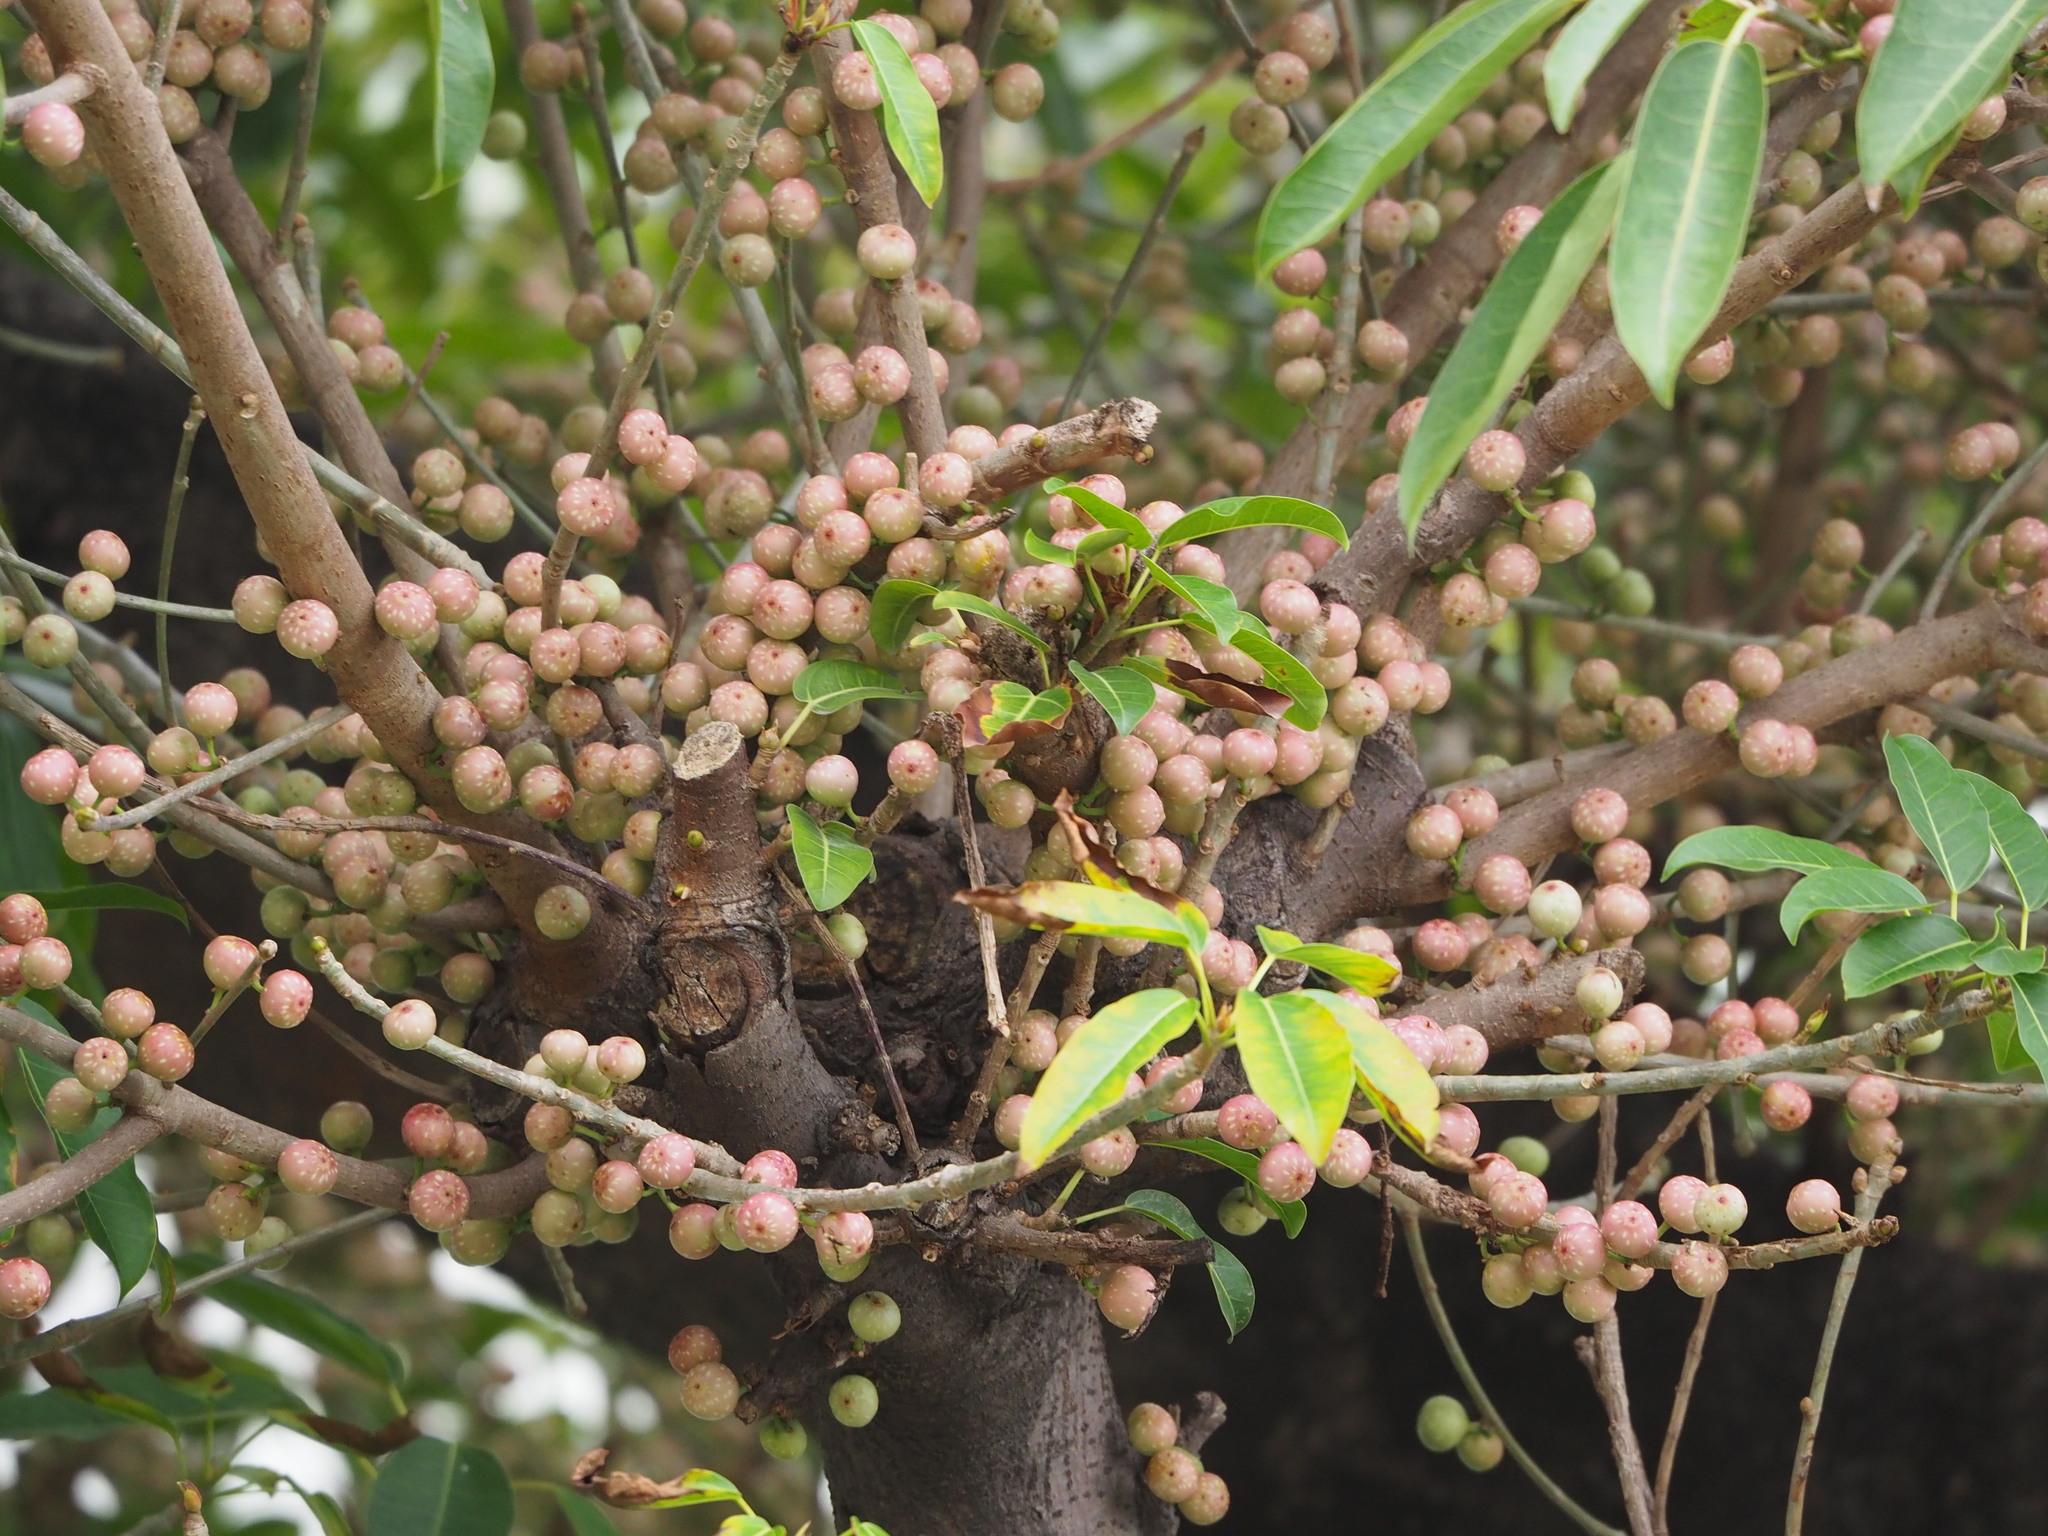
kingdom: Plantae
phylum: Tracheophyta
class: Magnoliopsida
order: Rosales
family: Moraceae
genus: Ficus
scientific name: Ficus subpisocarpa
